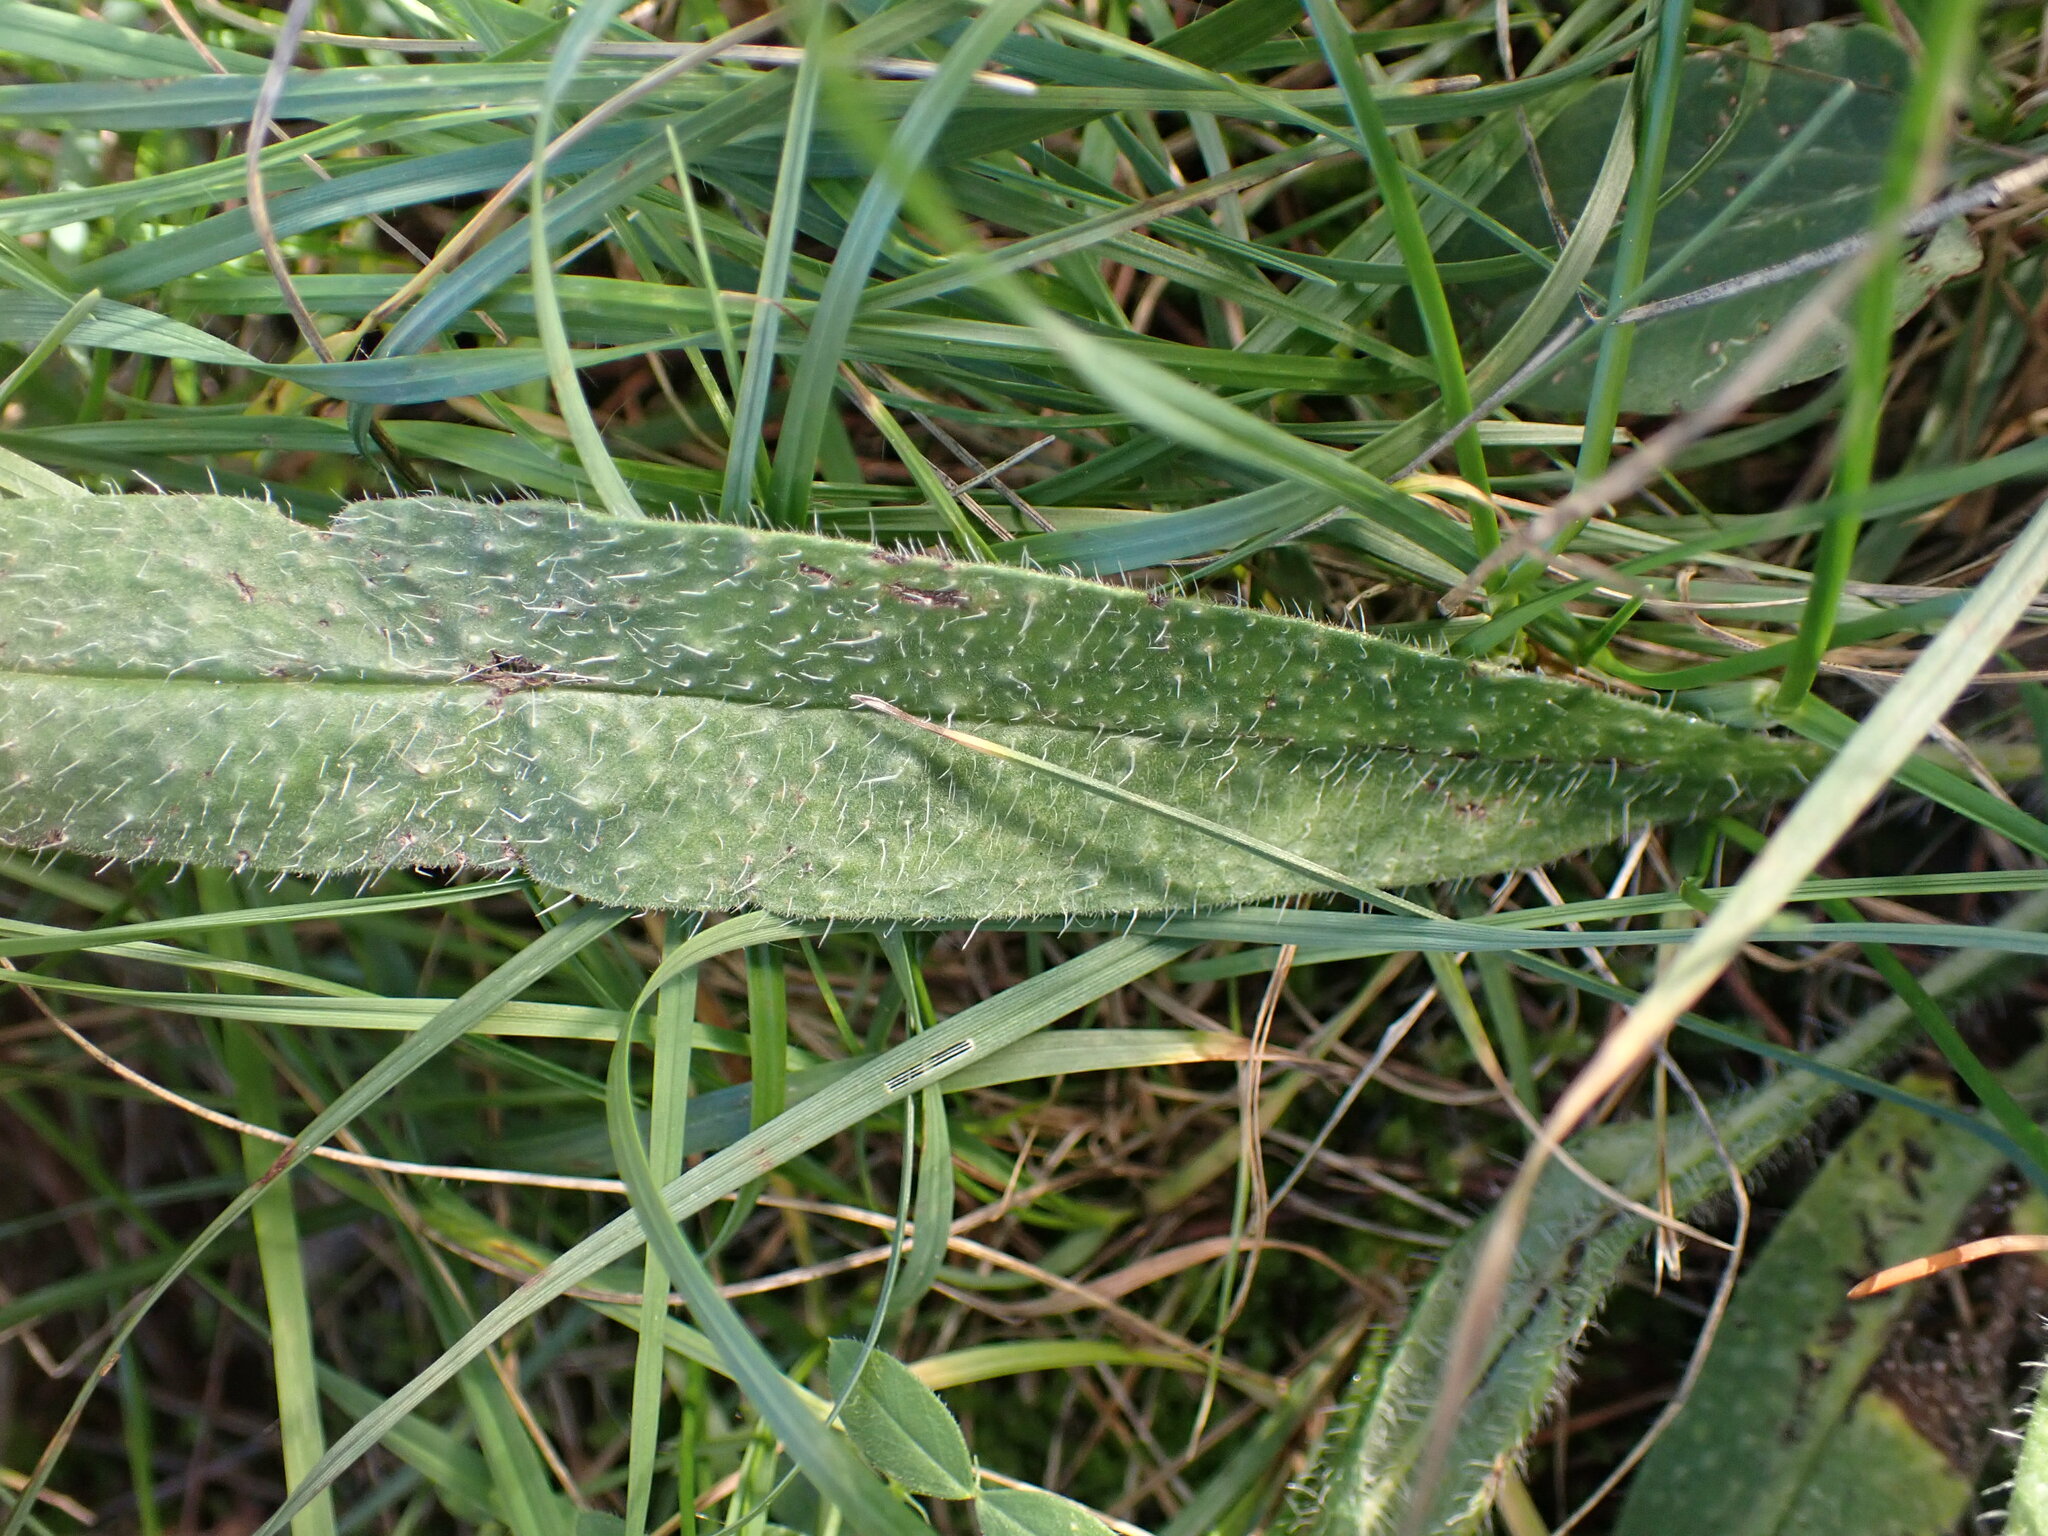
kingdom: Plantae
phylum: Tracheophyta
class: Magnoliopsida
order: Boraginales
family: Boraginaceae
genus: Echium
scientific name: Echium vulgare
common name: Common viper's bugloss
